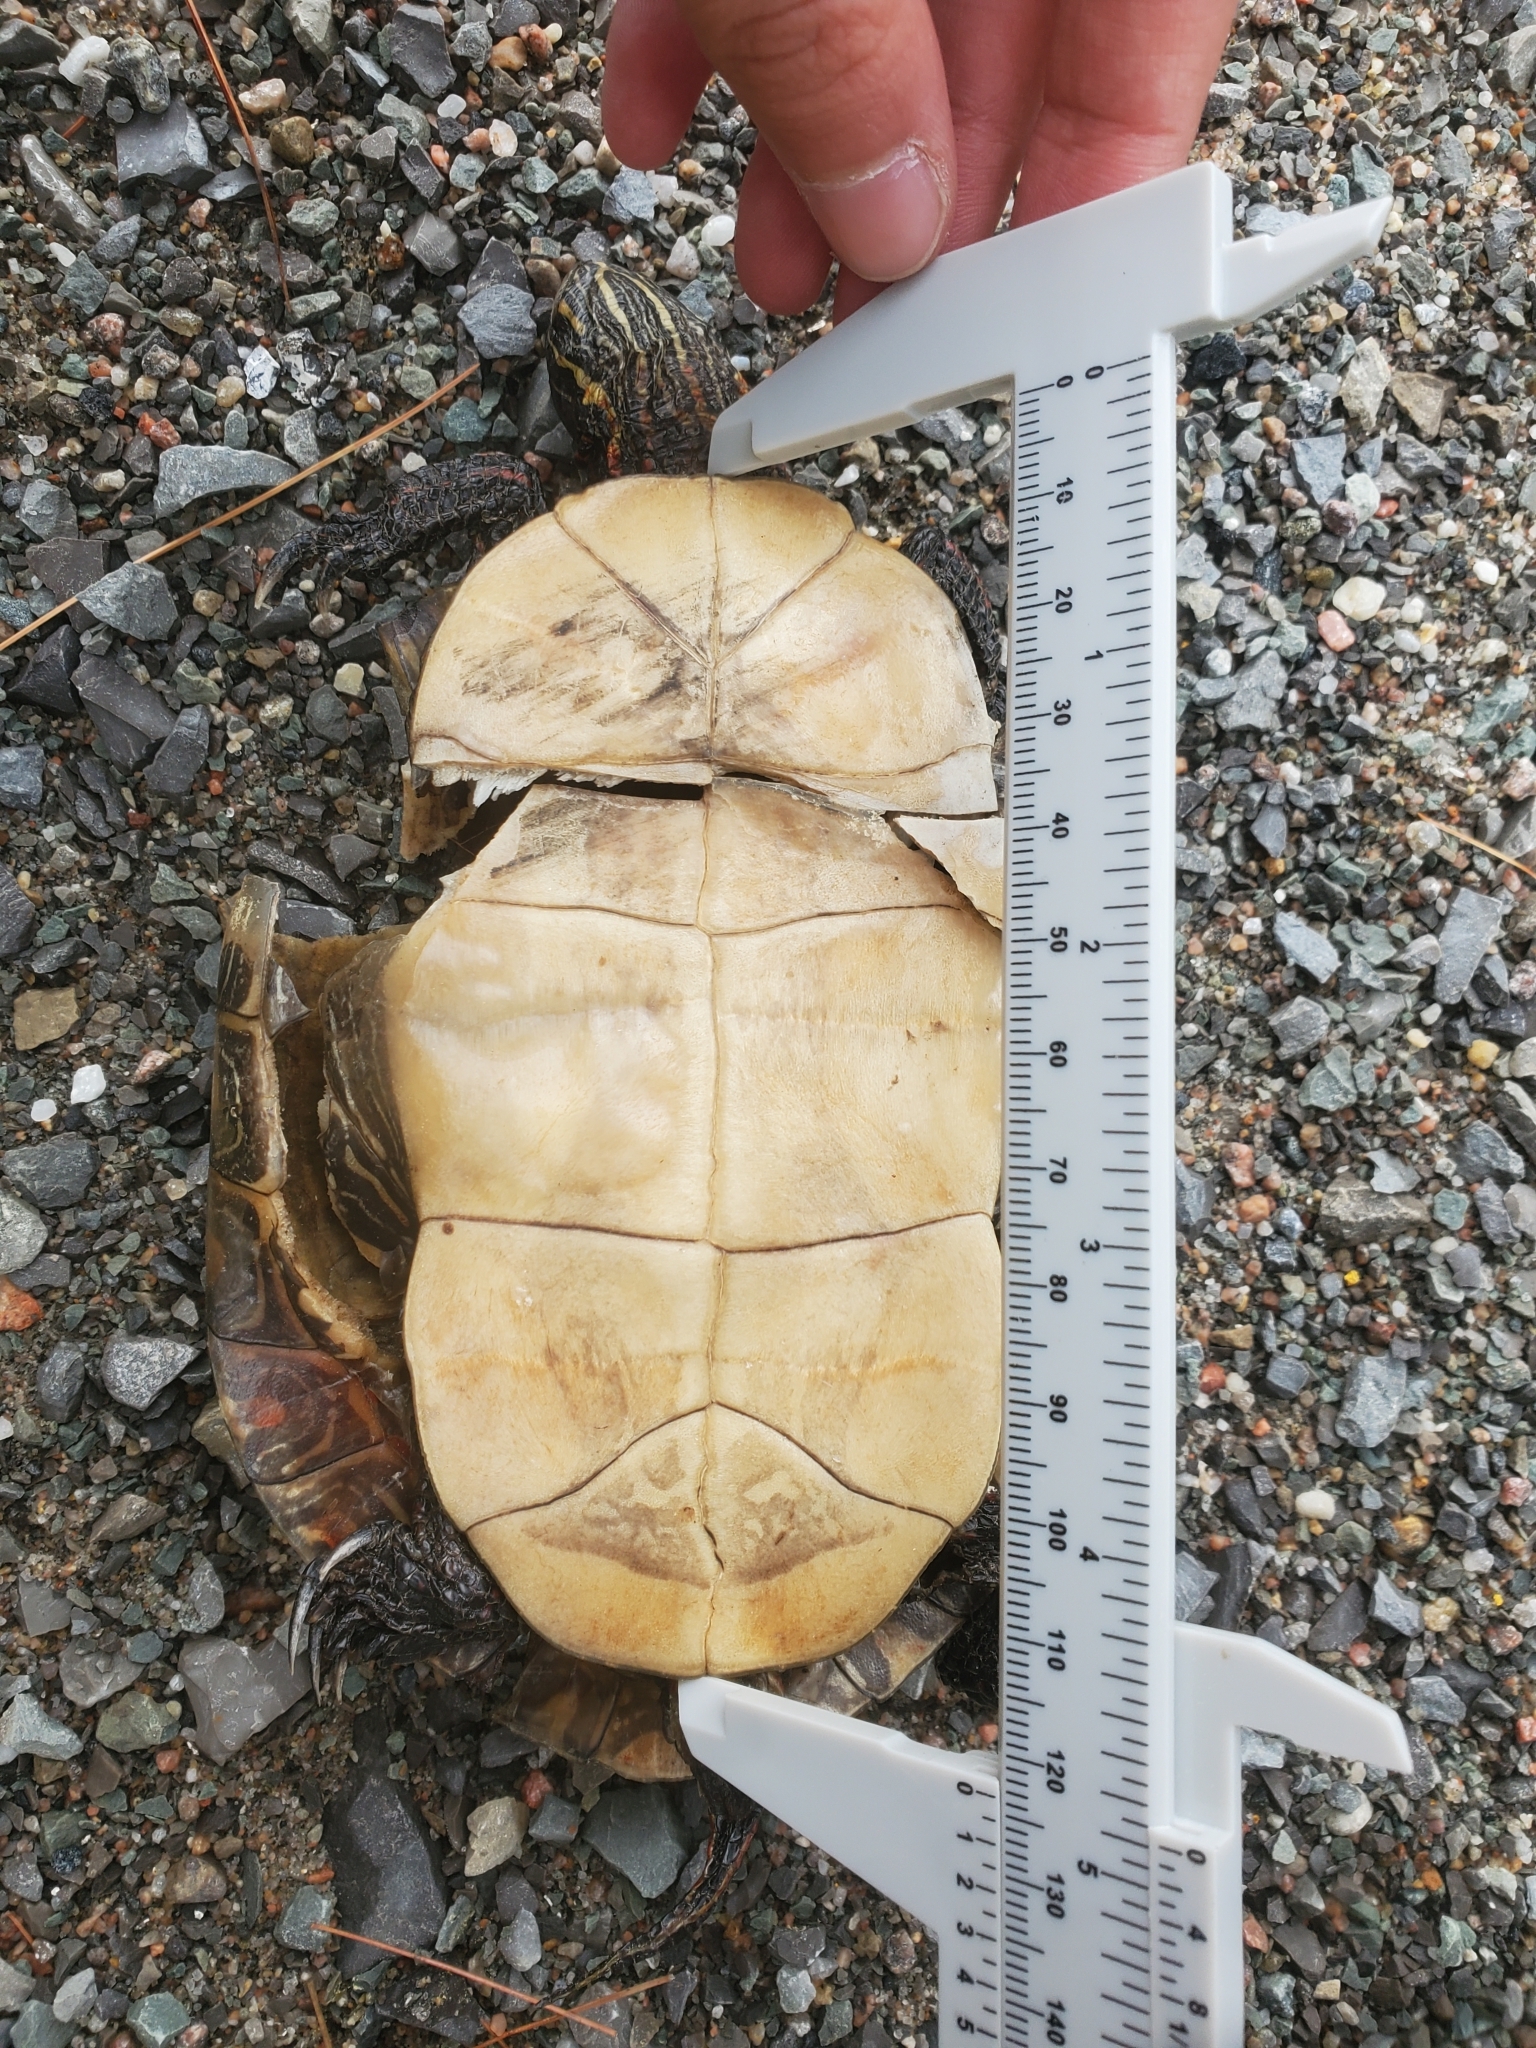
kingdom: Animalia
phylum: Chordata
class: Testudines
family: Emydidae
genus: Chrysemys
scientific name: Chrysemys picta
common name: Painted turtle
